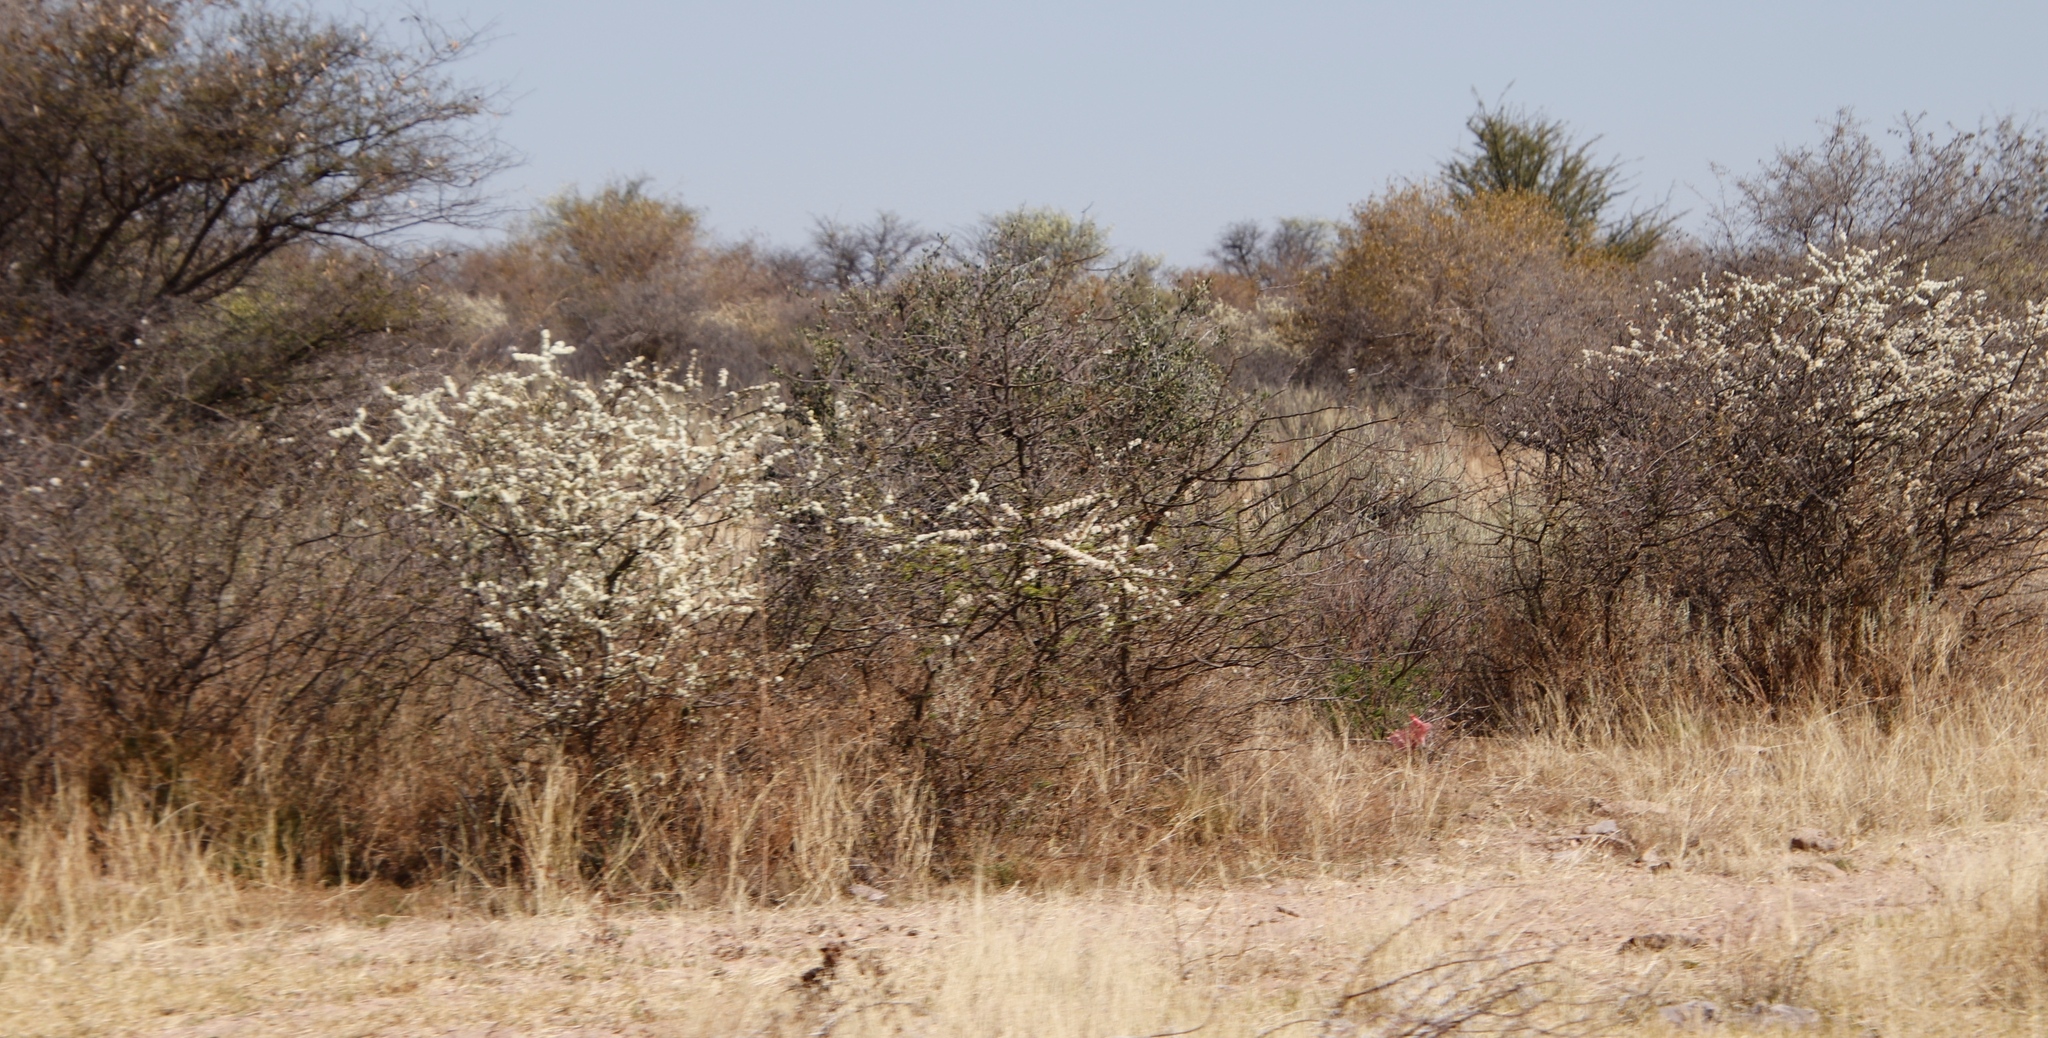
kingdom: Plantae
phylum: Tracheophyta
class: Magnoliopsida
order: Fabales
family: Fabaceae
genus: Senegalia
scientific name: Senegalia mellifera
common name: Hookthorn
